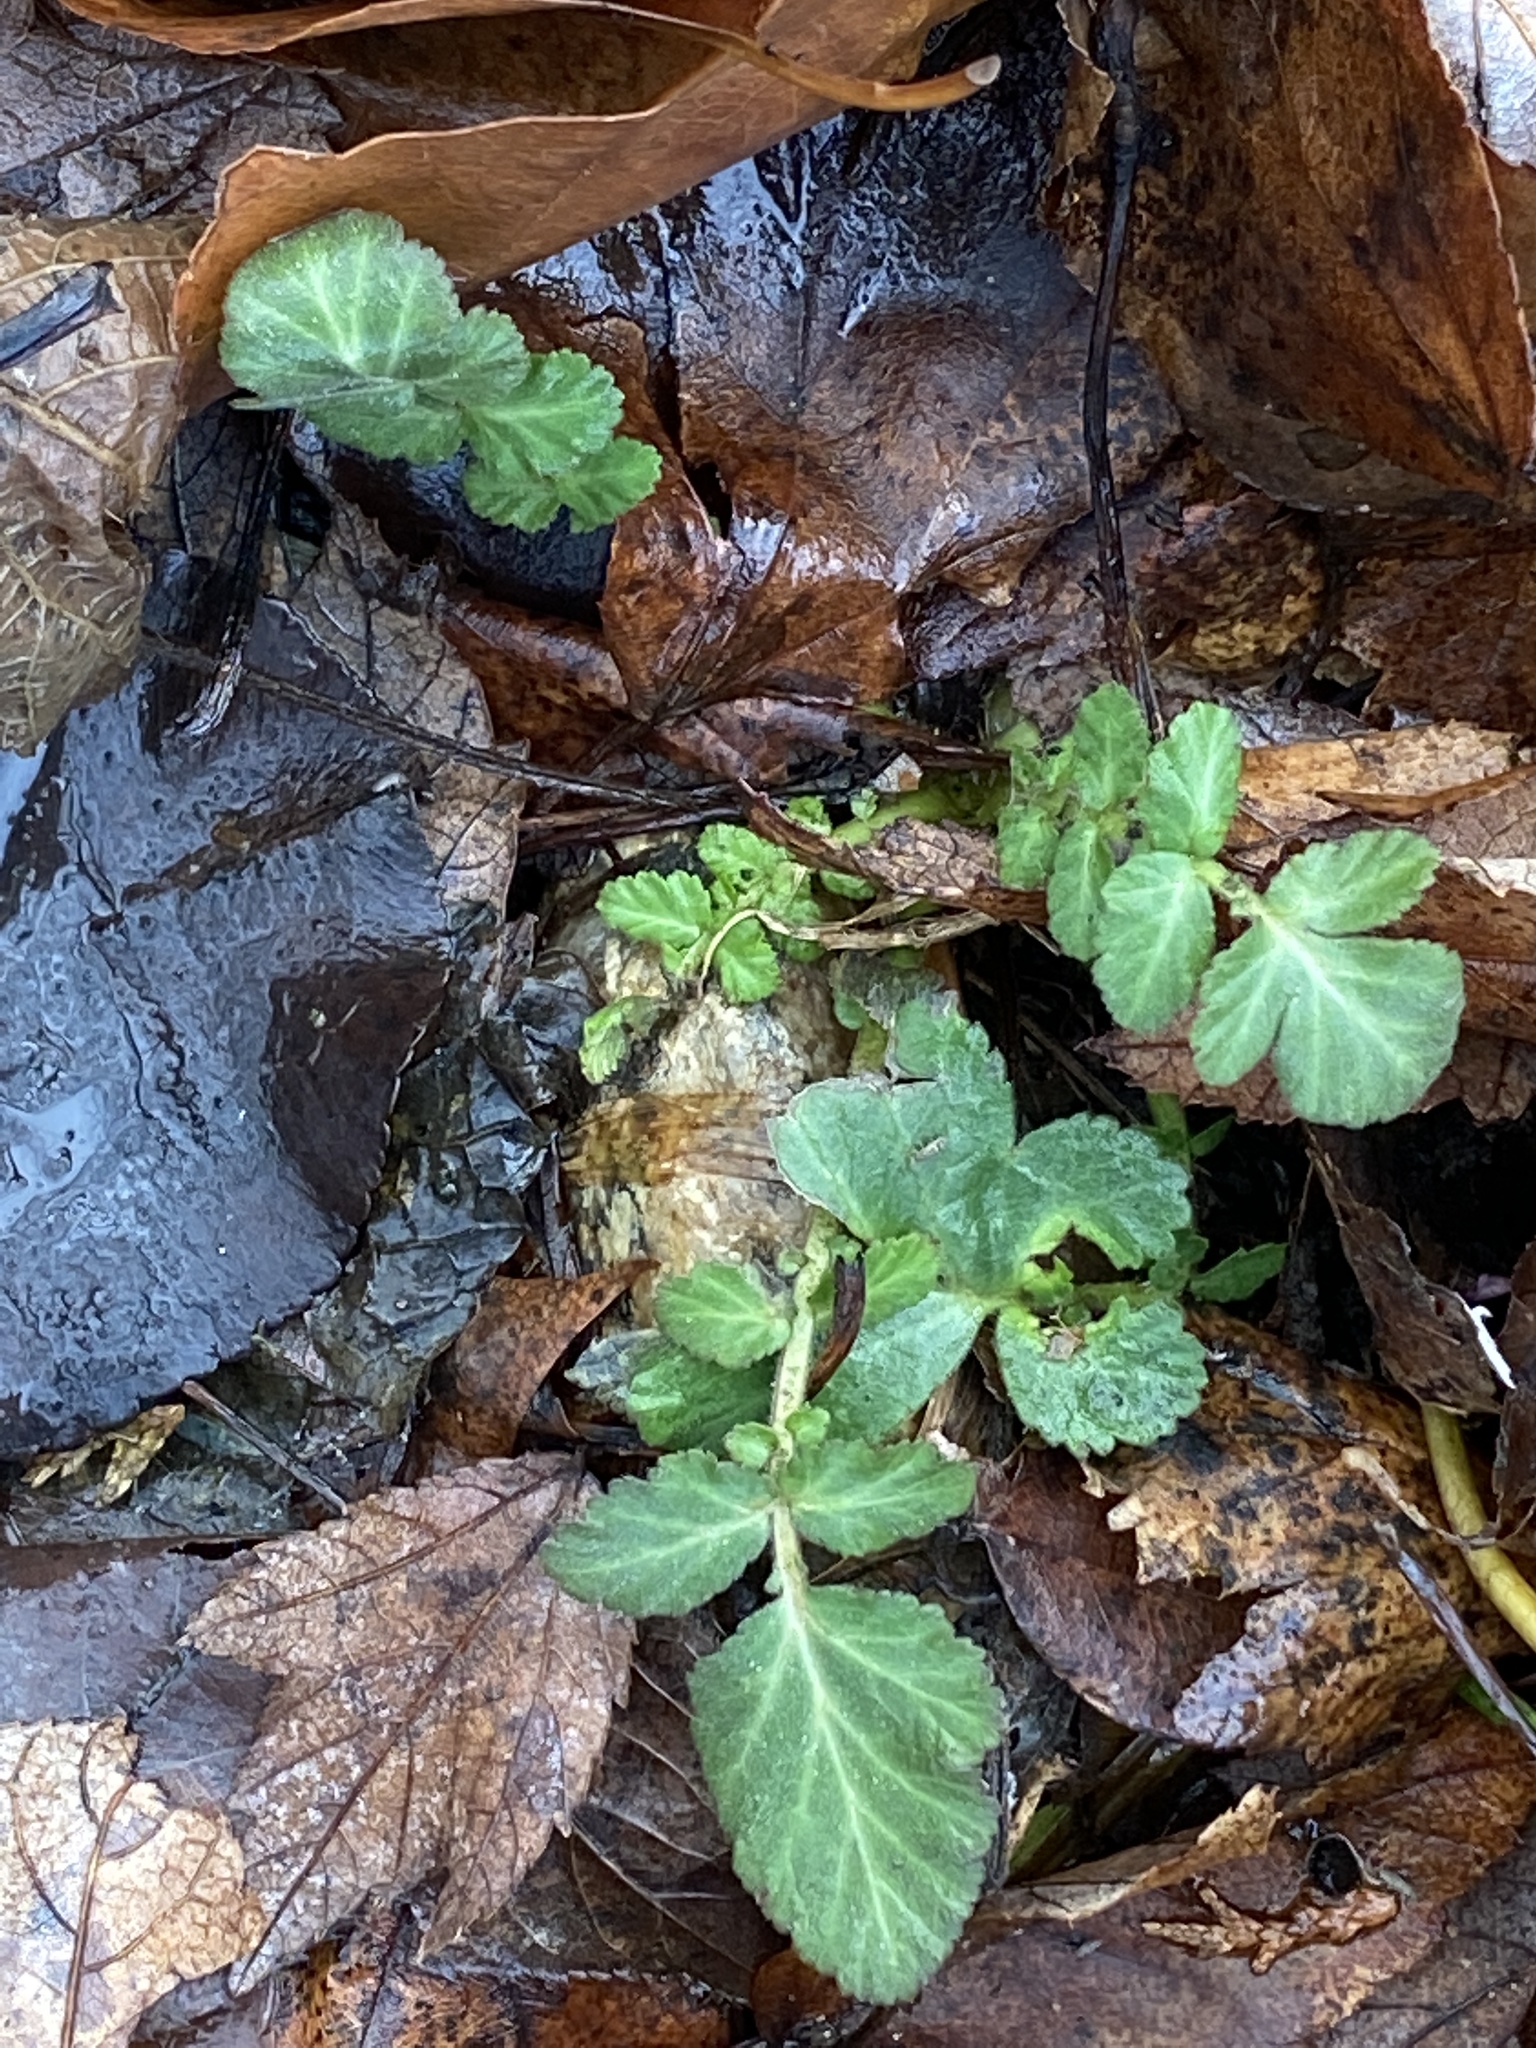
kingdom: Plantae
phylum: Tracheophyta
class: Magnoliopsida
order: Rosales
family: Rosaceae
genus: Geum
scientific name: Geum canadense
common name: White avens
